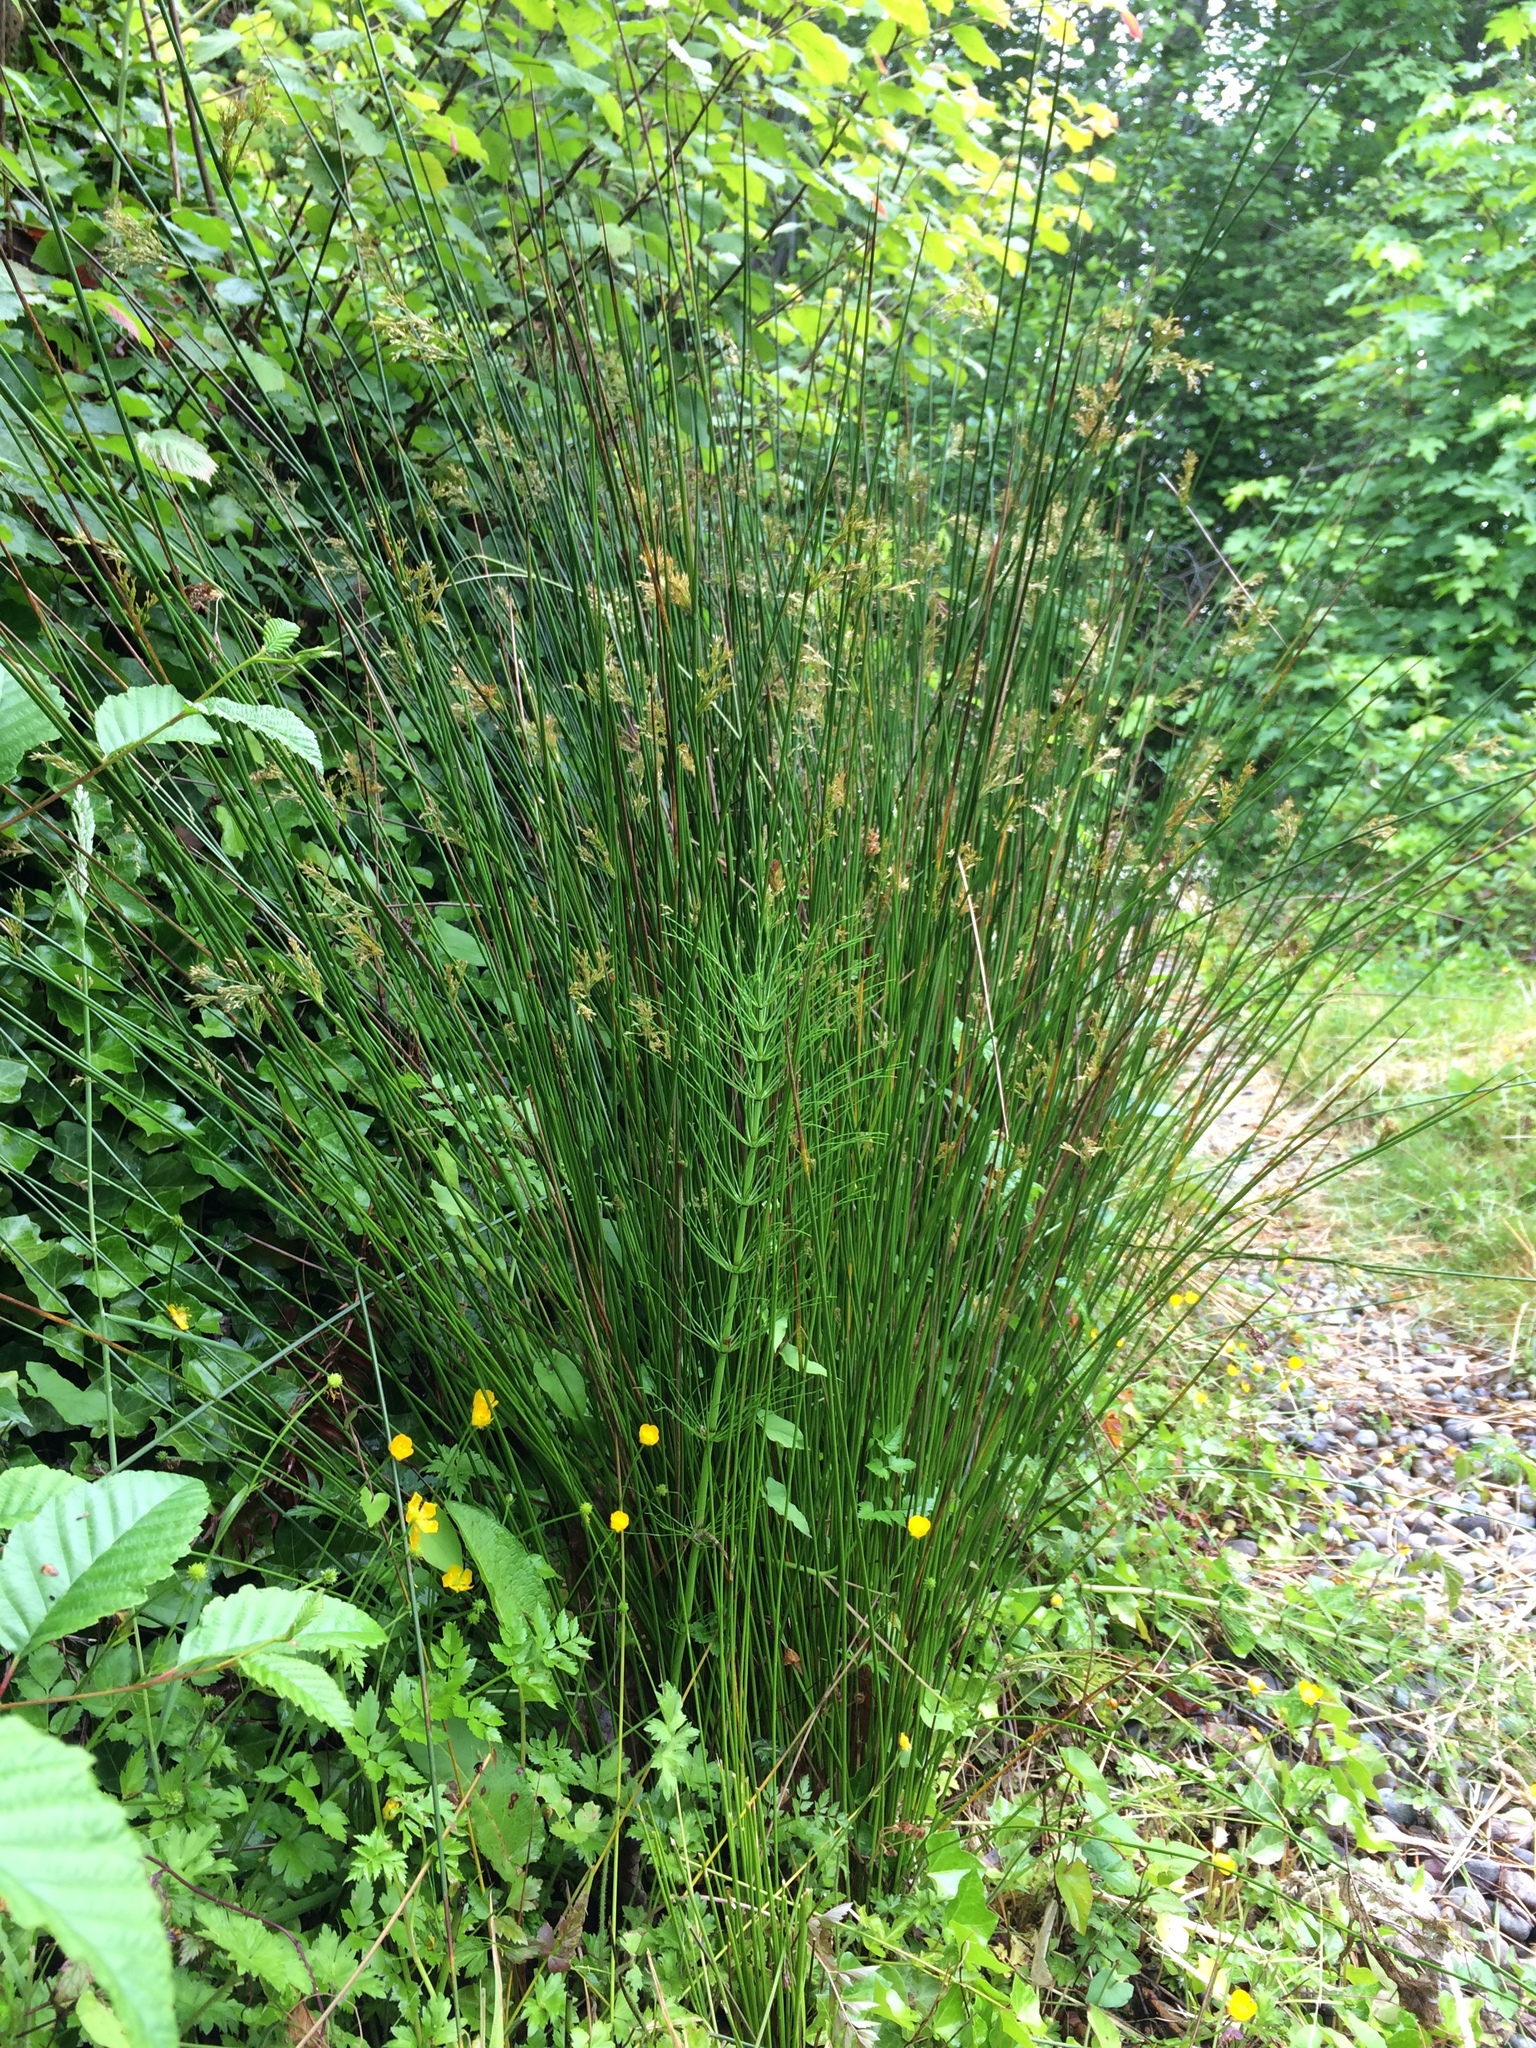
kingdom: Plantae
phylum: Tracheophyta
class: Liliopsida
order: Poales
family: Juncaceae
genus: Juncus
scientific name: Juncus effusus
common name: Soft rush
